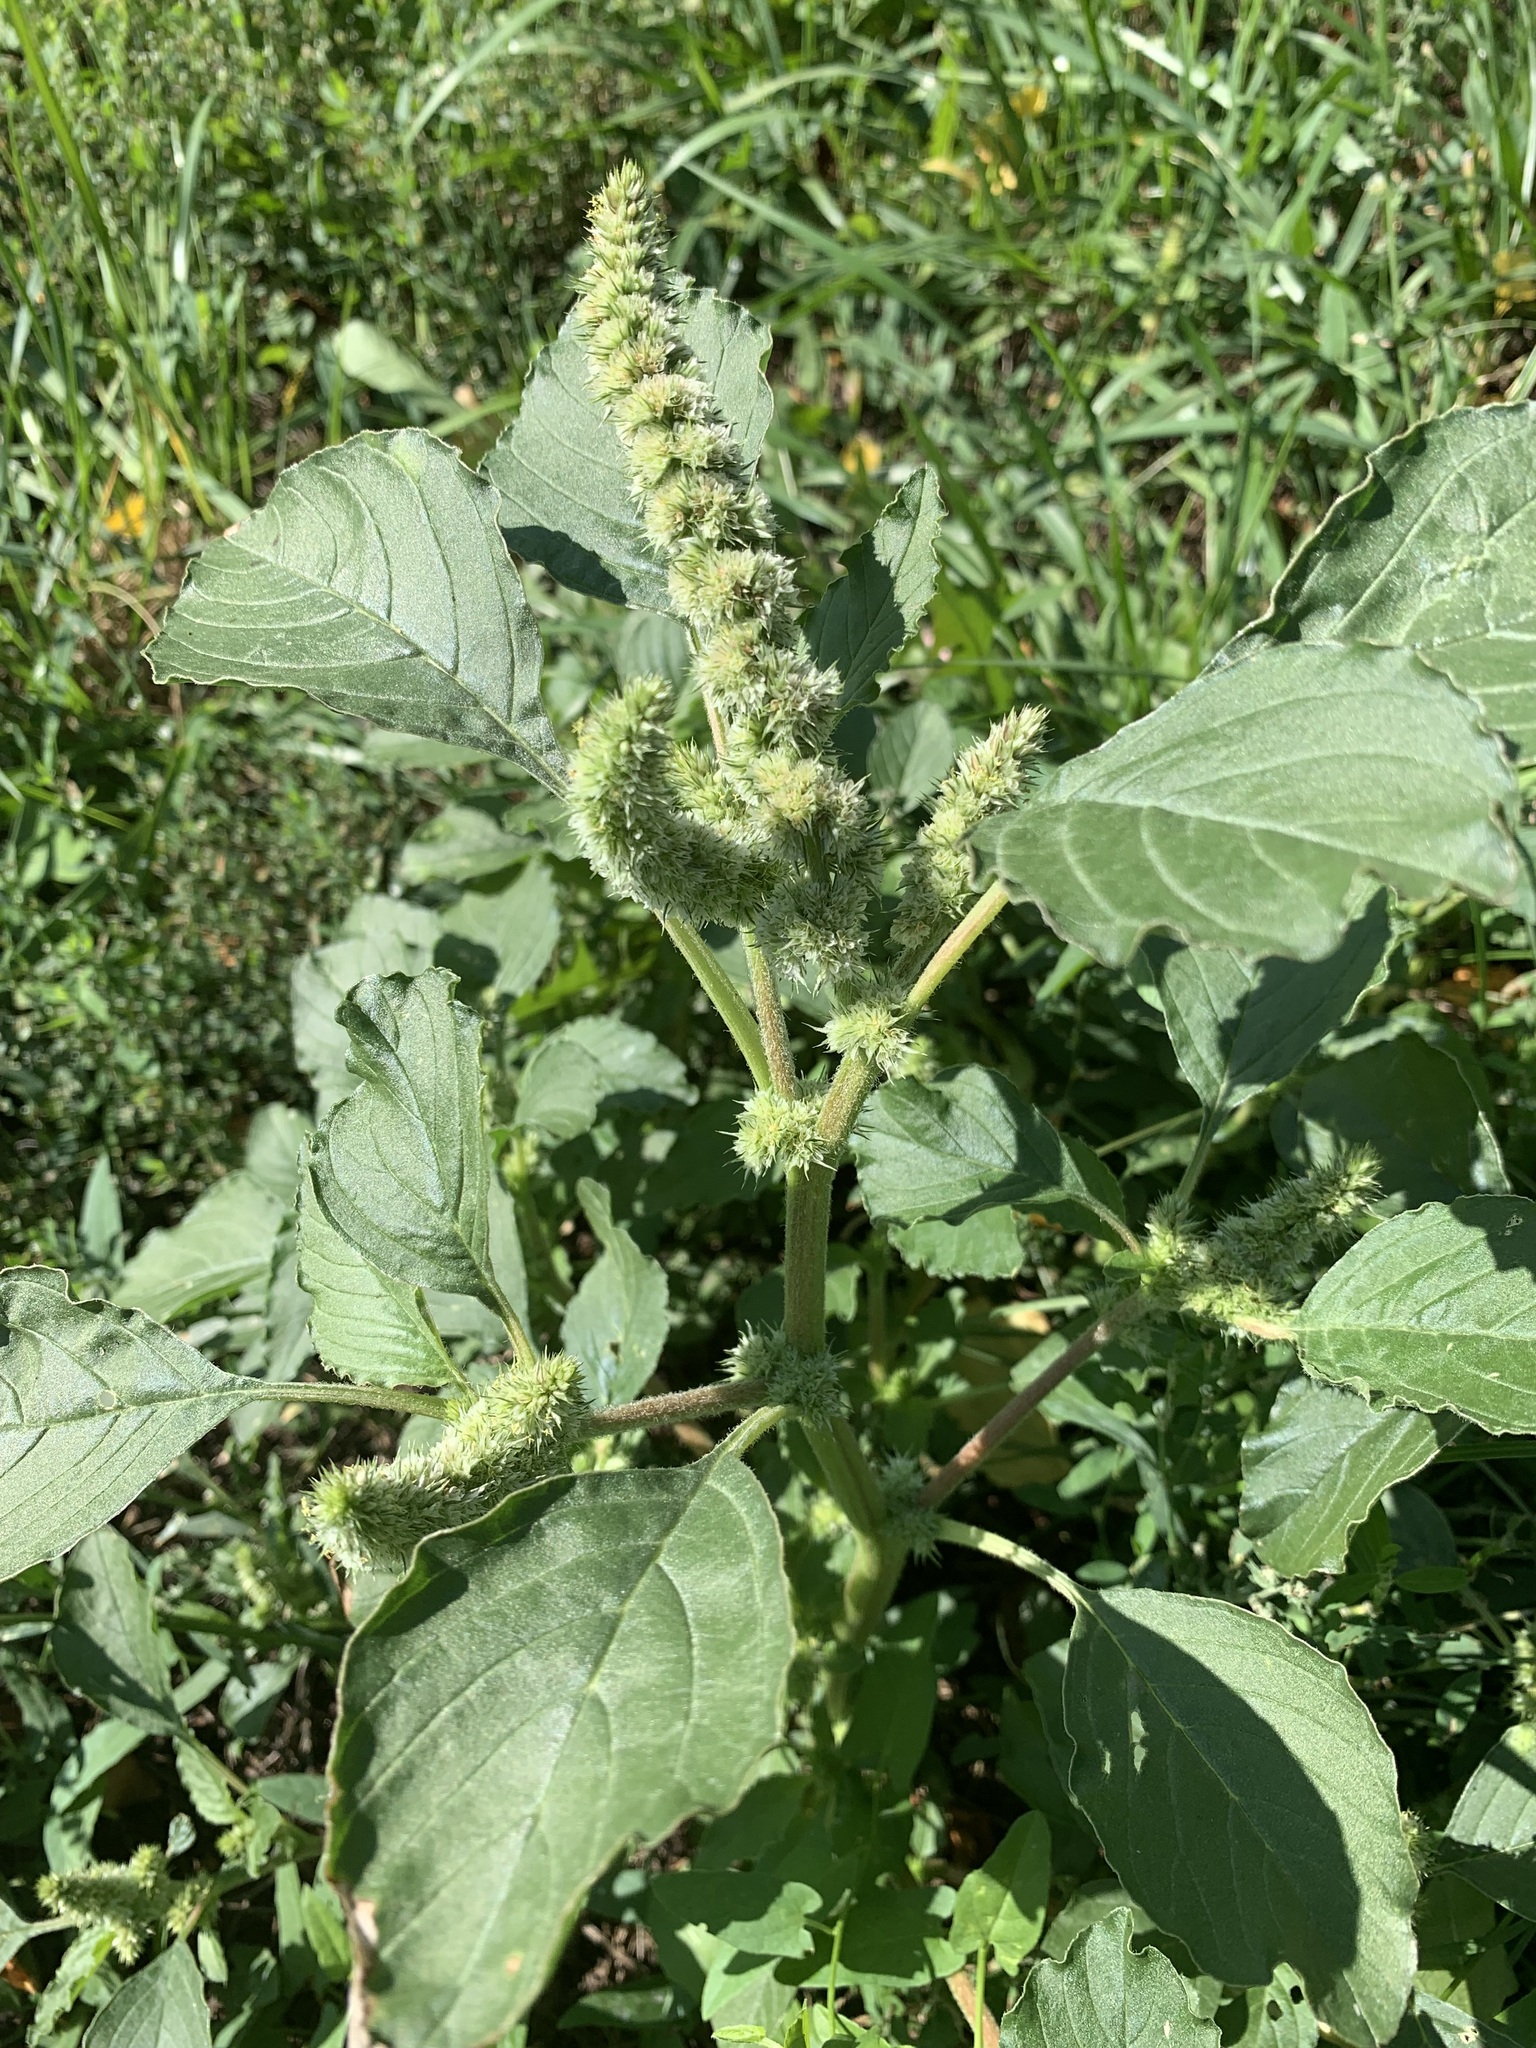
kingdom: Plantae
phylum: Tracheophyta
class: Magnoliopsida
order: Caryophyllales
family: Amaranthaceae
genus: Amaranthus
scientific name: Amaranthus retroflexus
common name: Redroot amaranth
